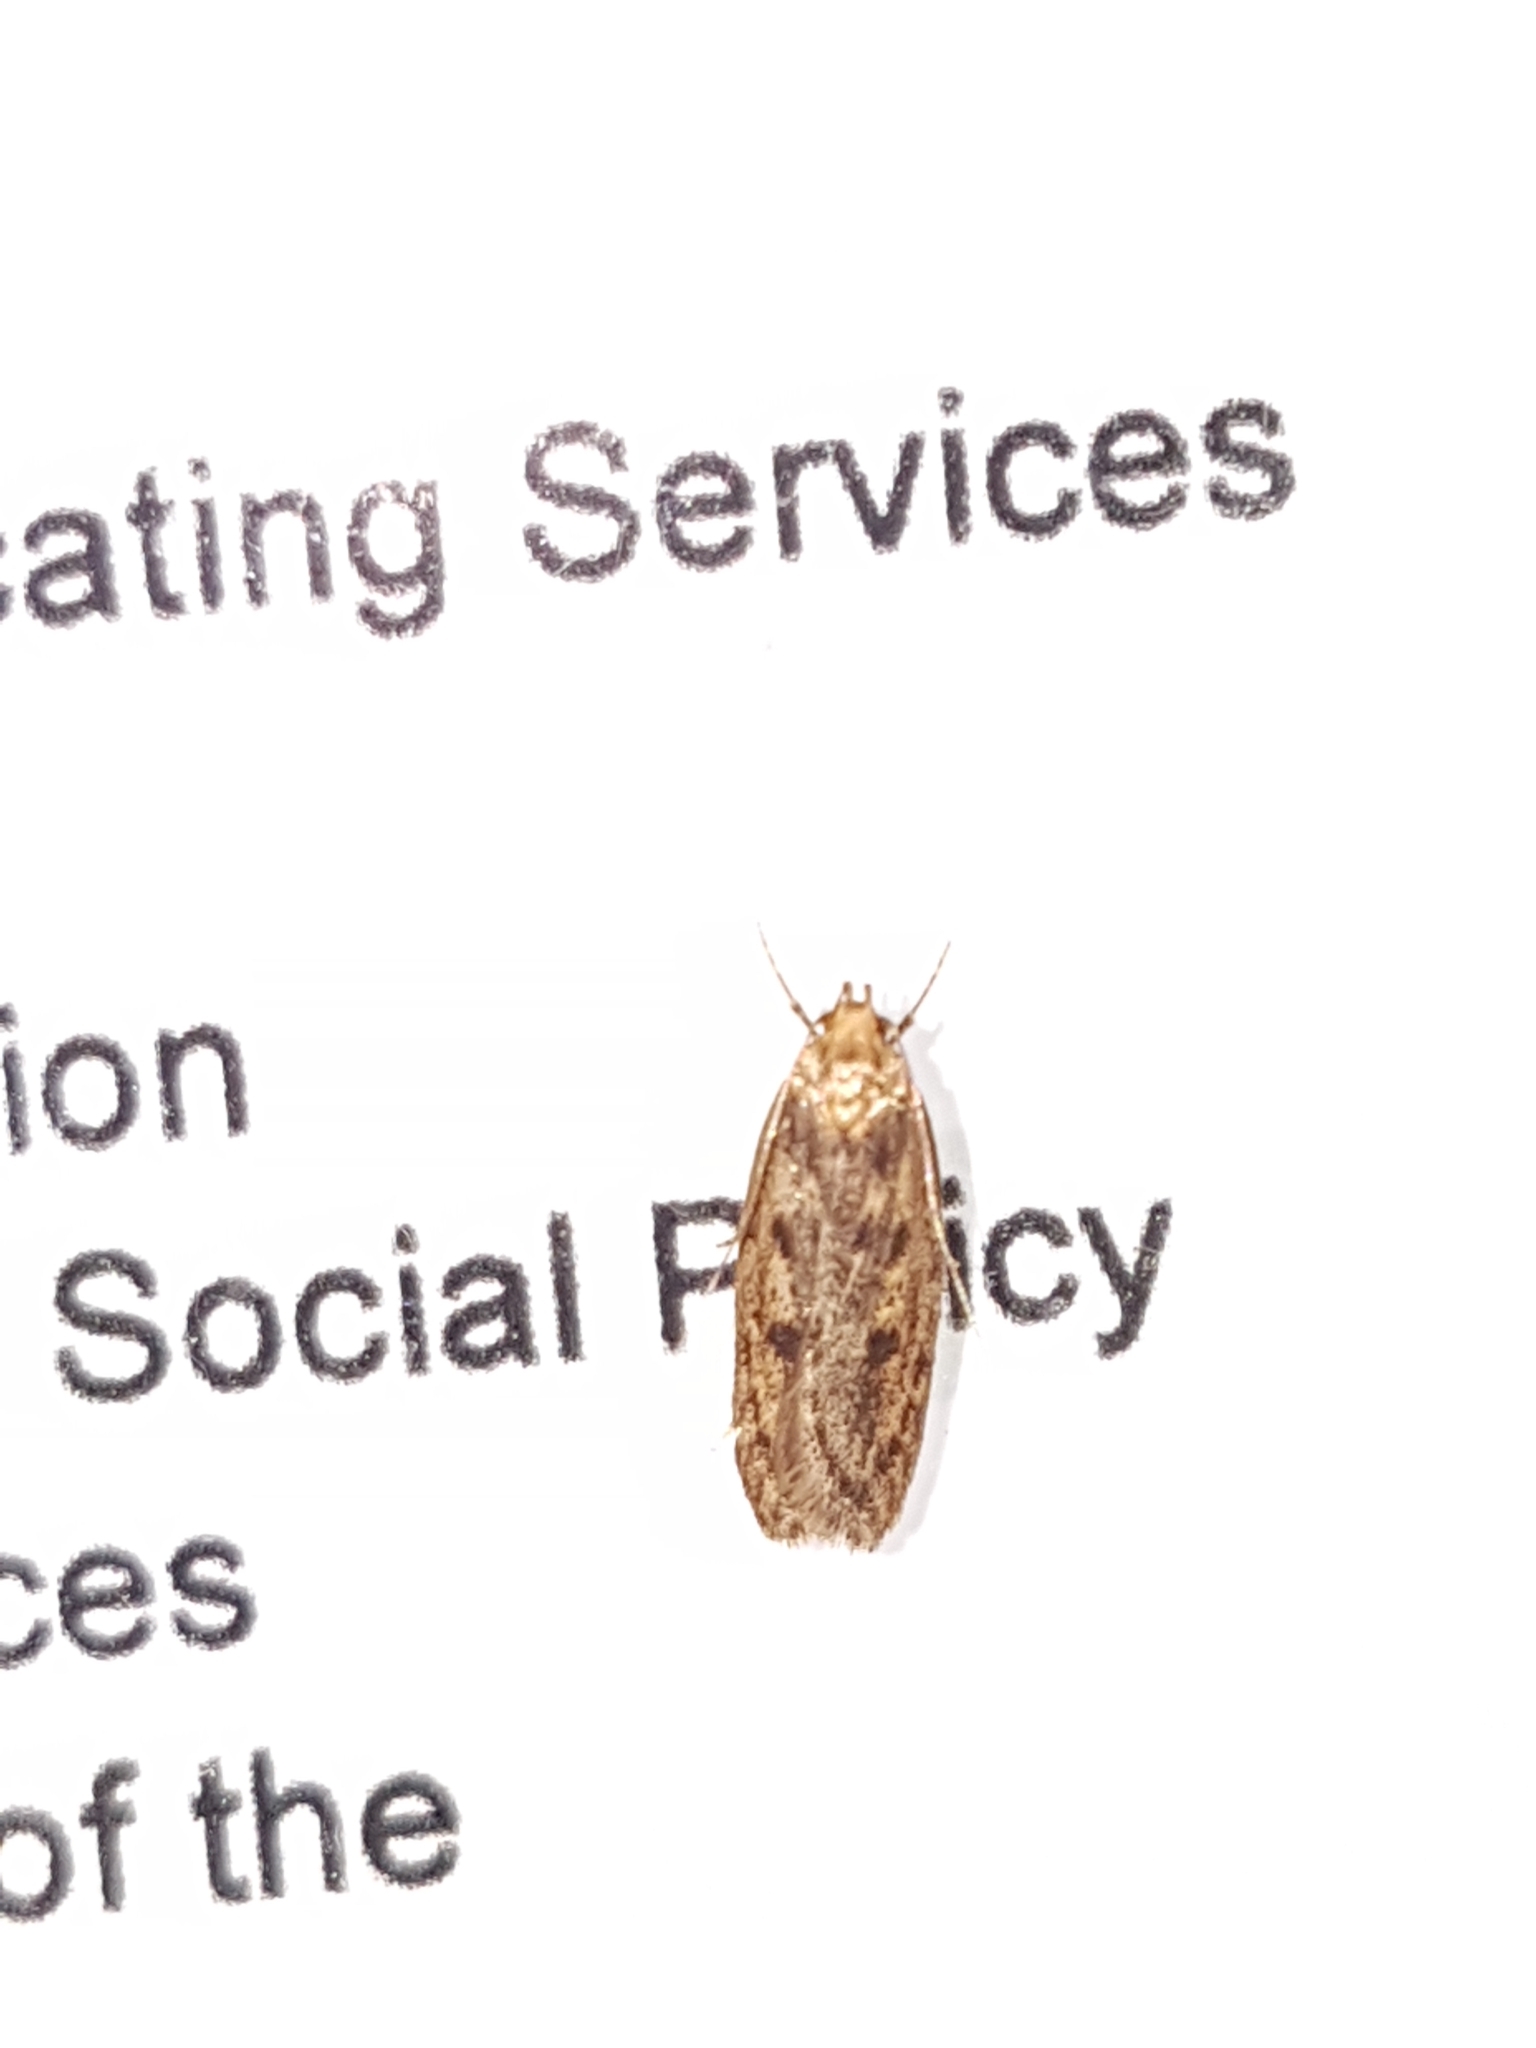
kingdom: Animalia
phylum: Arthropoda
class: Insecta
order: Lepidoptera
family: Oecophoridae
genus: Hofmannophila
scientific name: Hofmannophila pseudospretella
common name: Brown house moth
